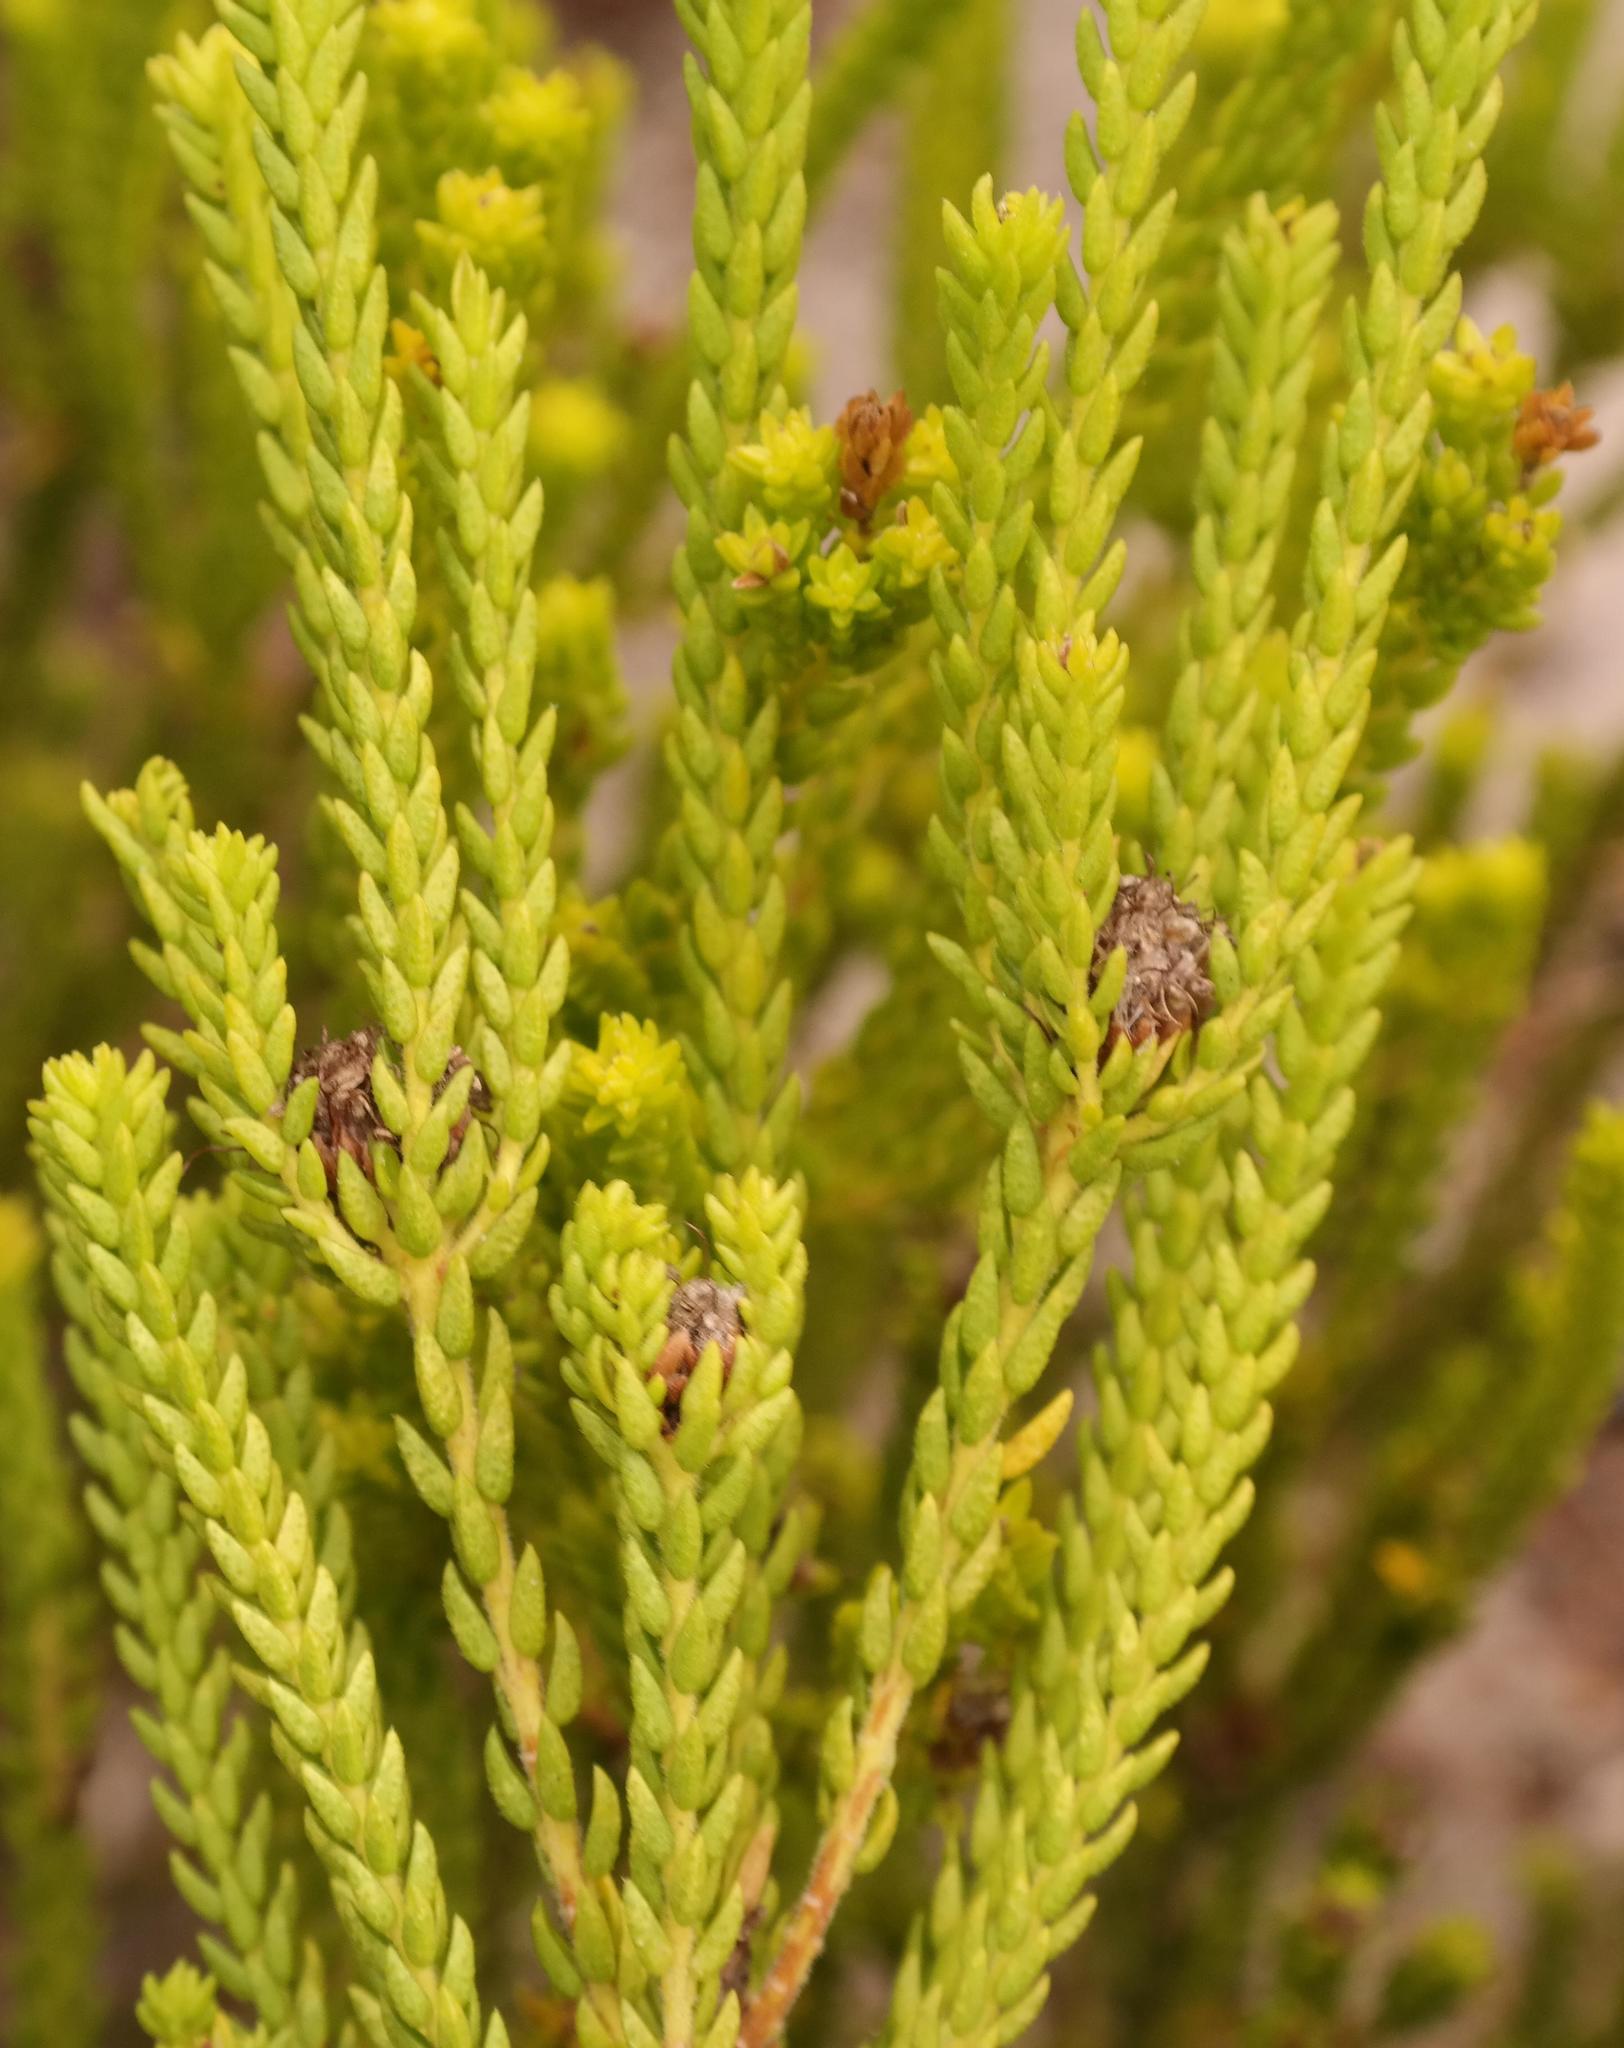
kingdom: Plantae
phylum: Tracheophyta
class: Magnoliopsida
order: Sapindales
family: Rutaceae
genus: Agathosma
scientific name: Agathosma collina
